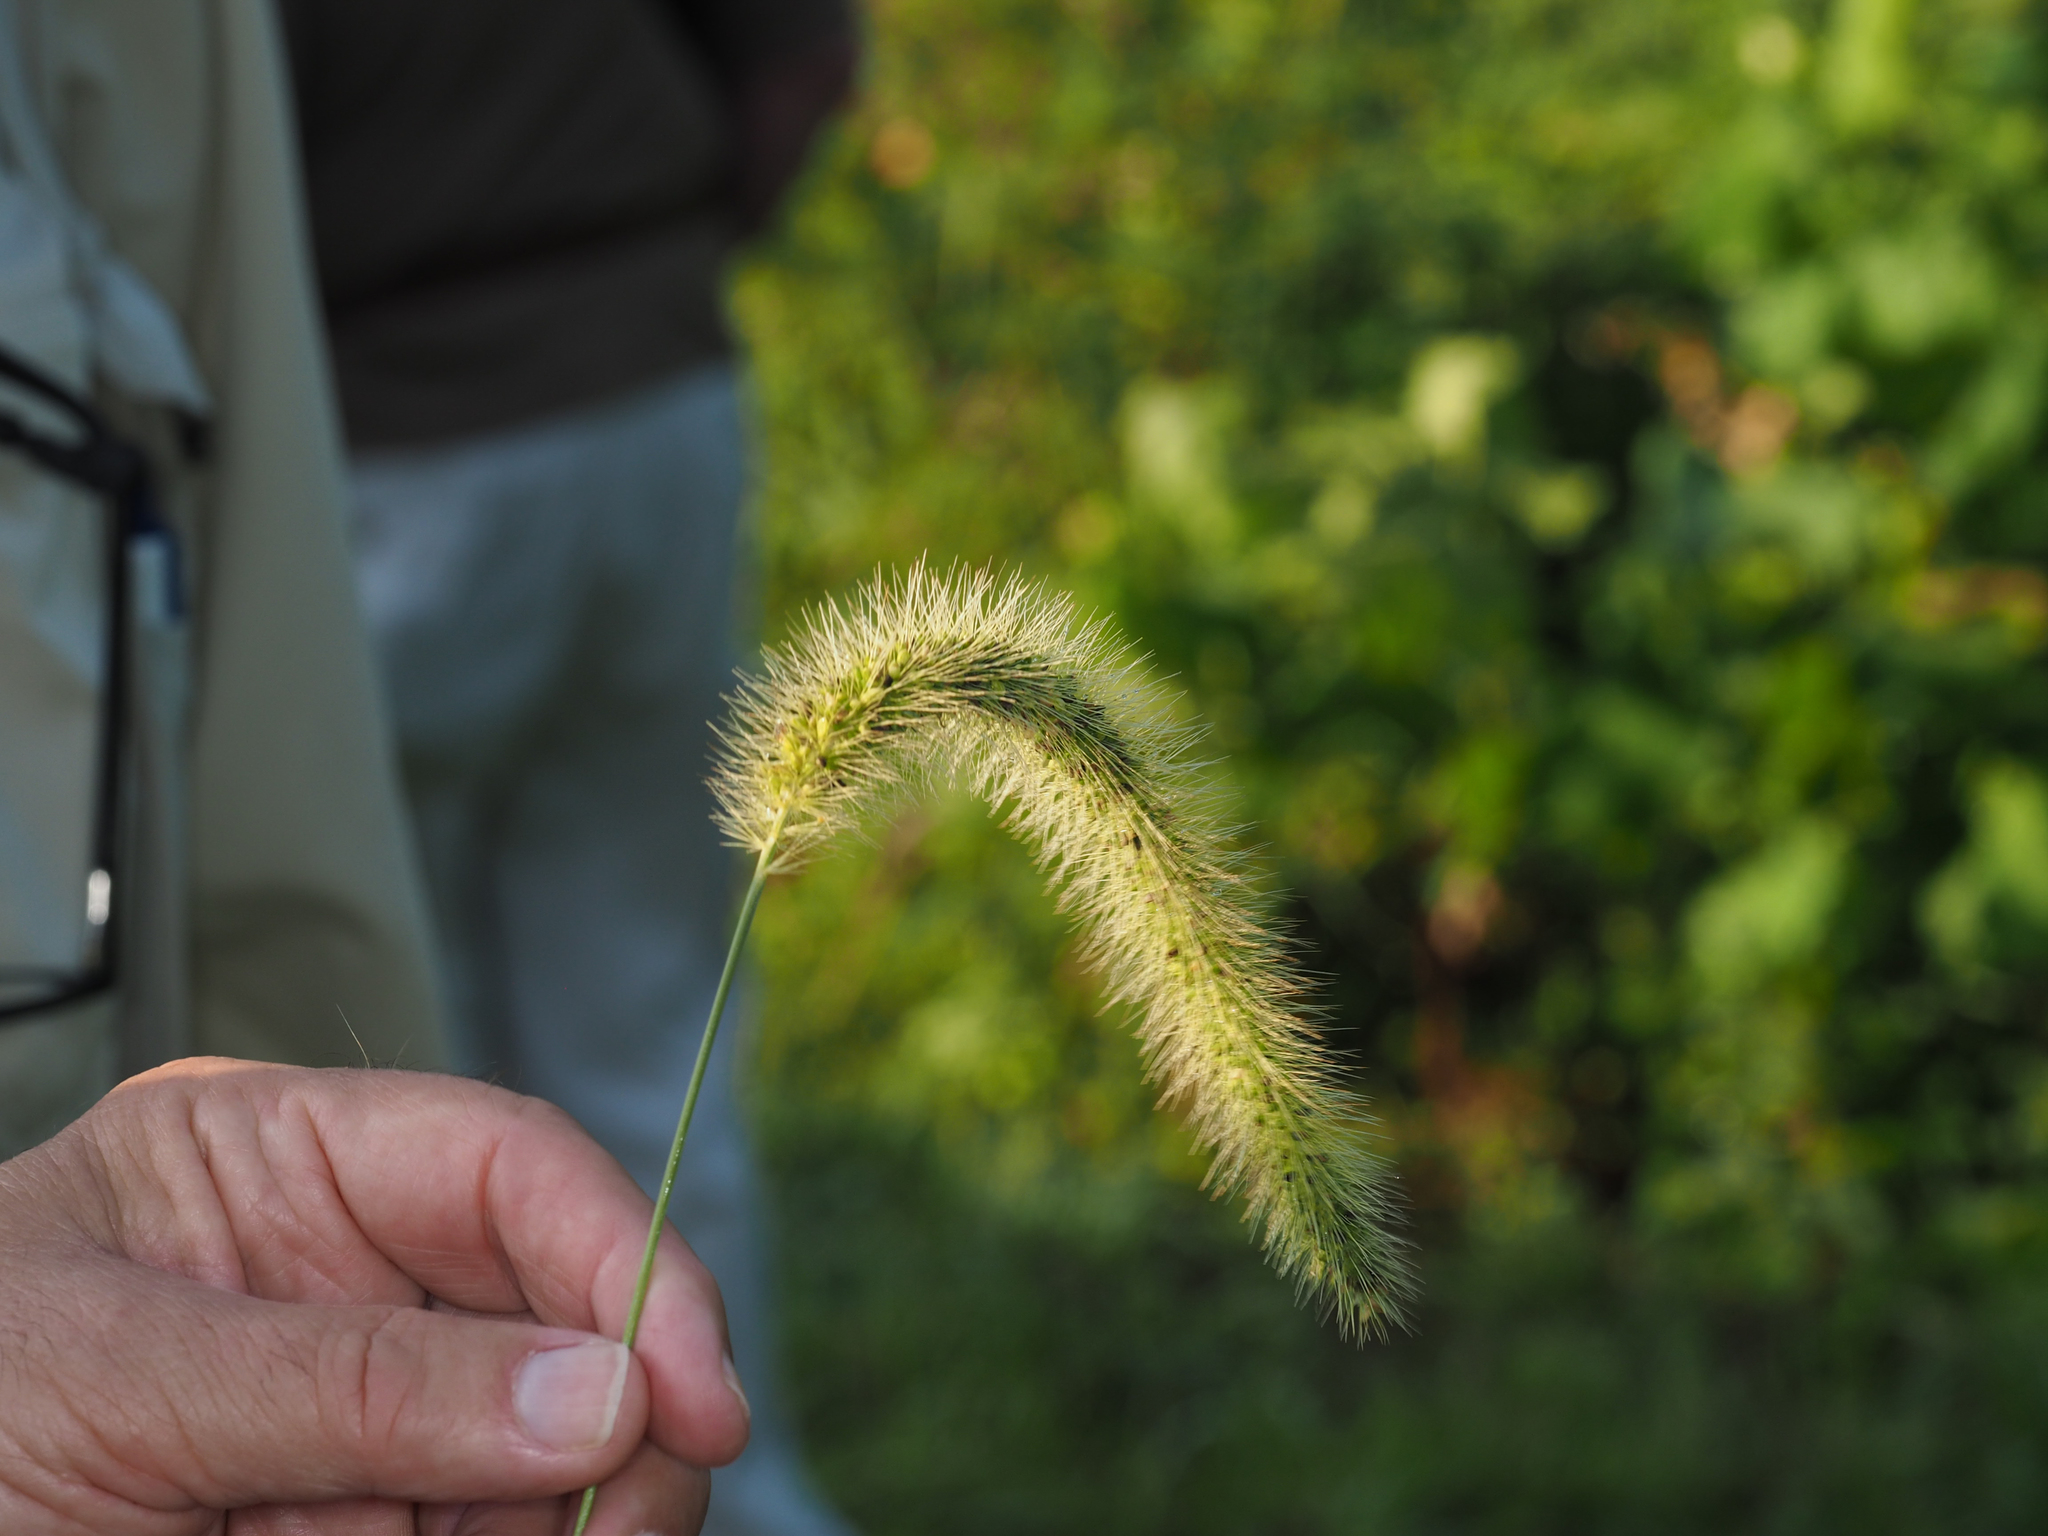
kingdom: Plantae
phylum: Tracheophyta
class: Liliopsida
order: Poales
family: Poaceae
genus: Setaria
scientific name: Setaria faberi
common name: Nodding bristle-grass
